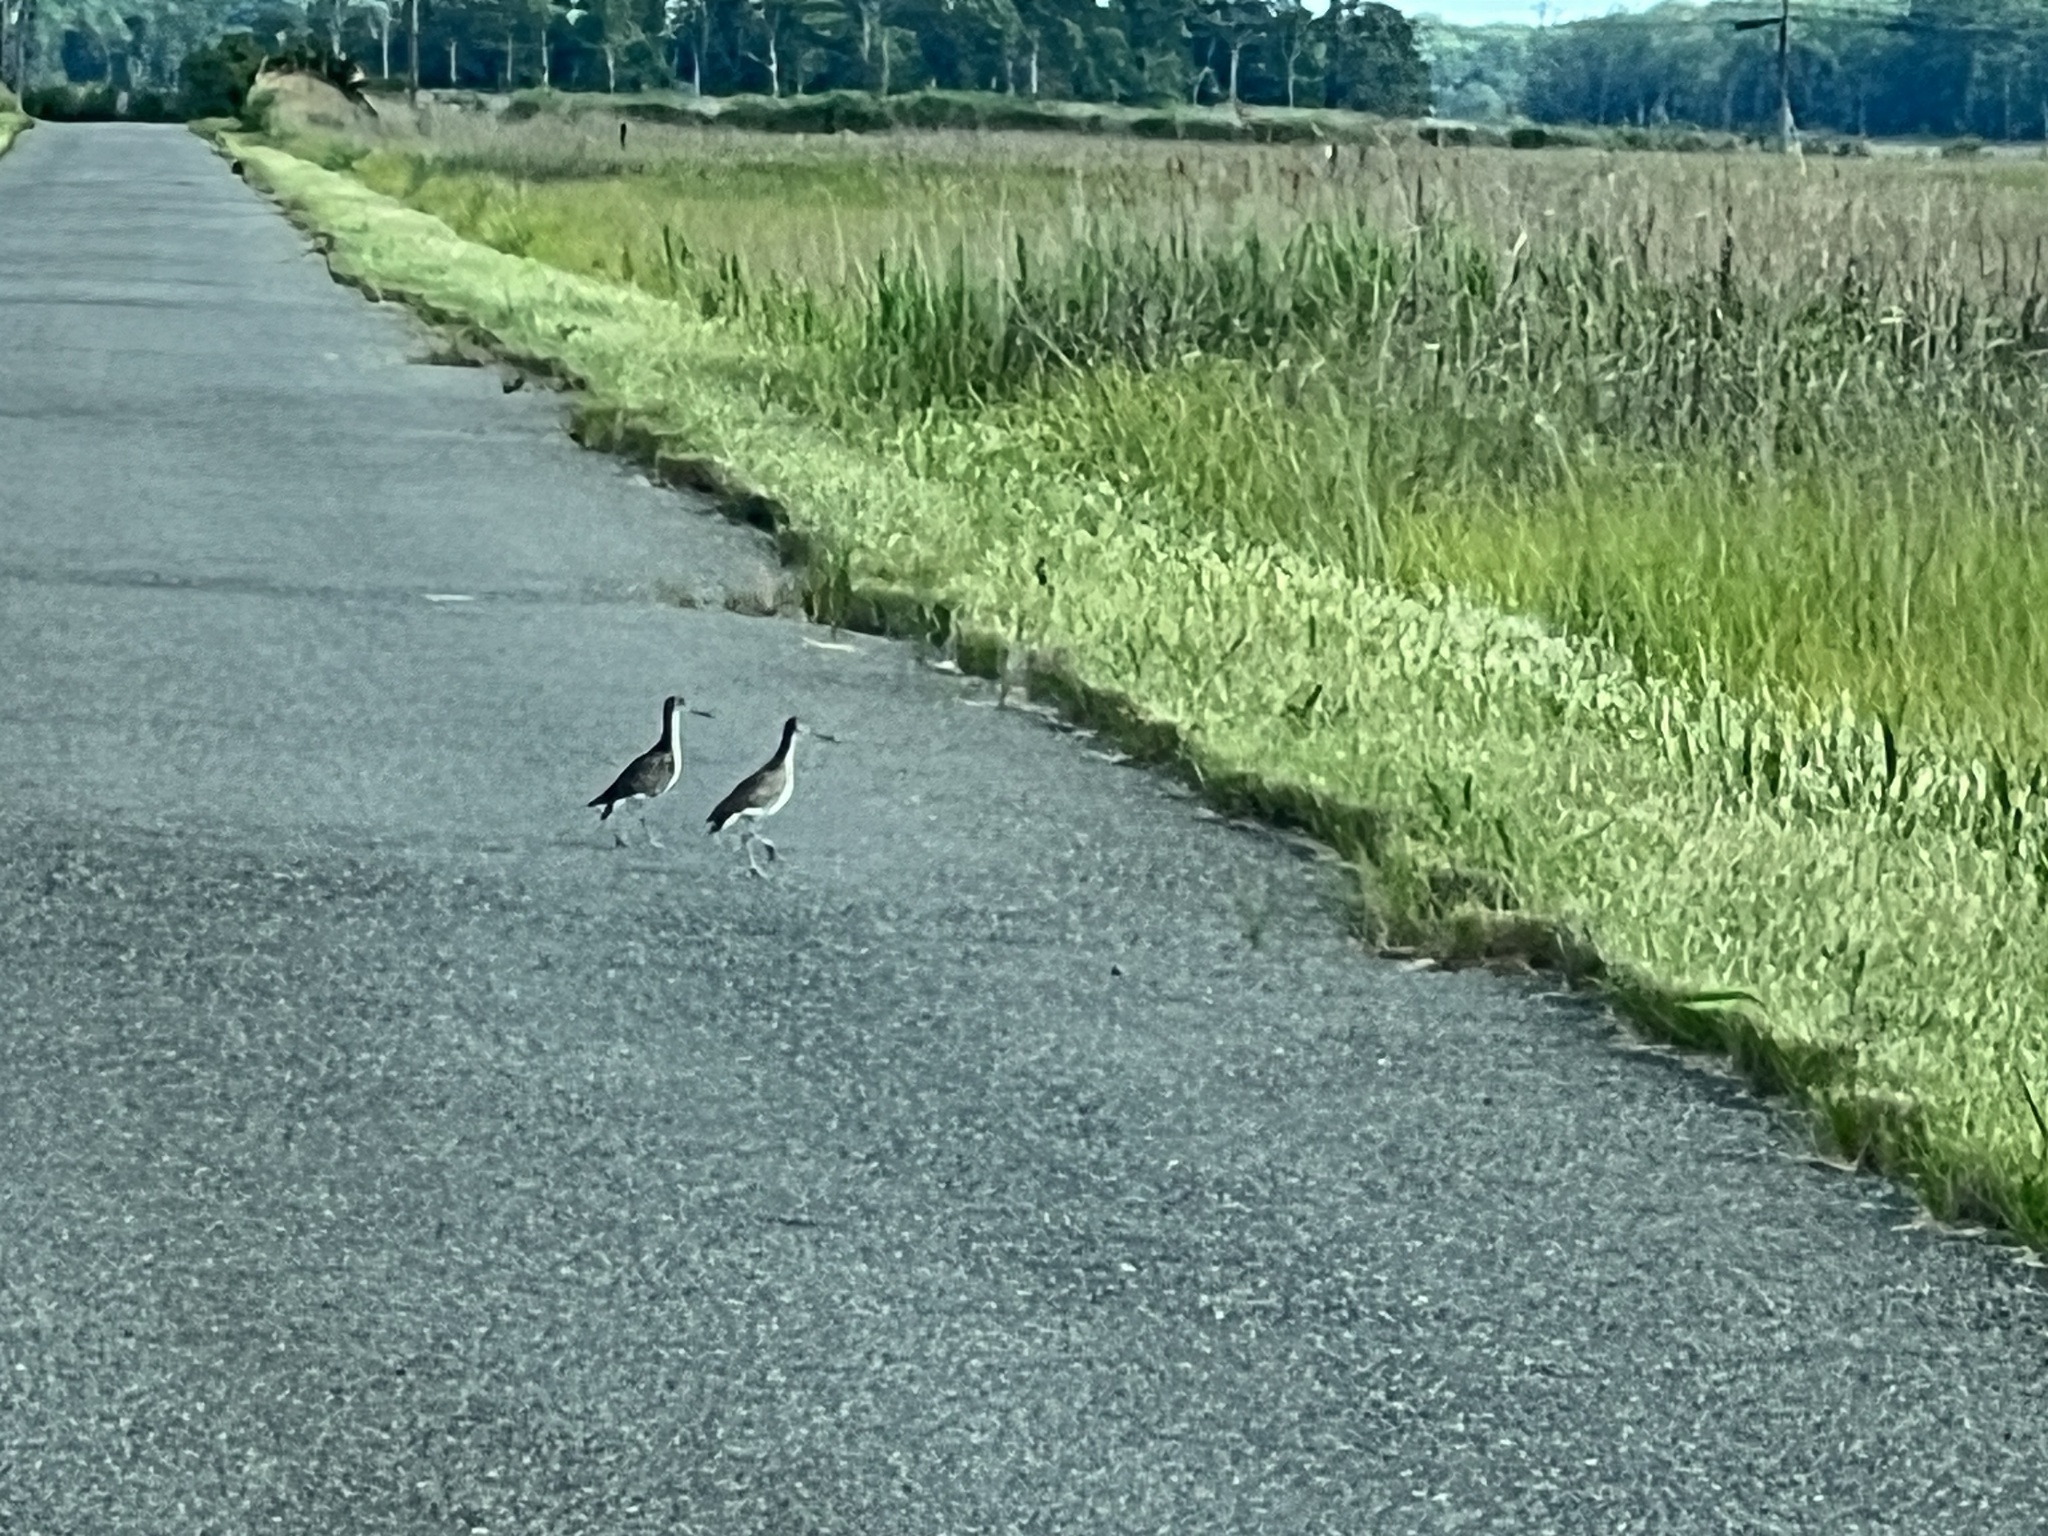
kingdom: Animalia
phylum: Chordata
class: Aves
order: Charadriiformes
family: Scolopacidae
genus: Tringa
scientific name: Tringa semipalmata
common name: Willet
